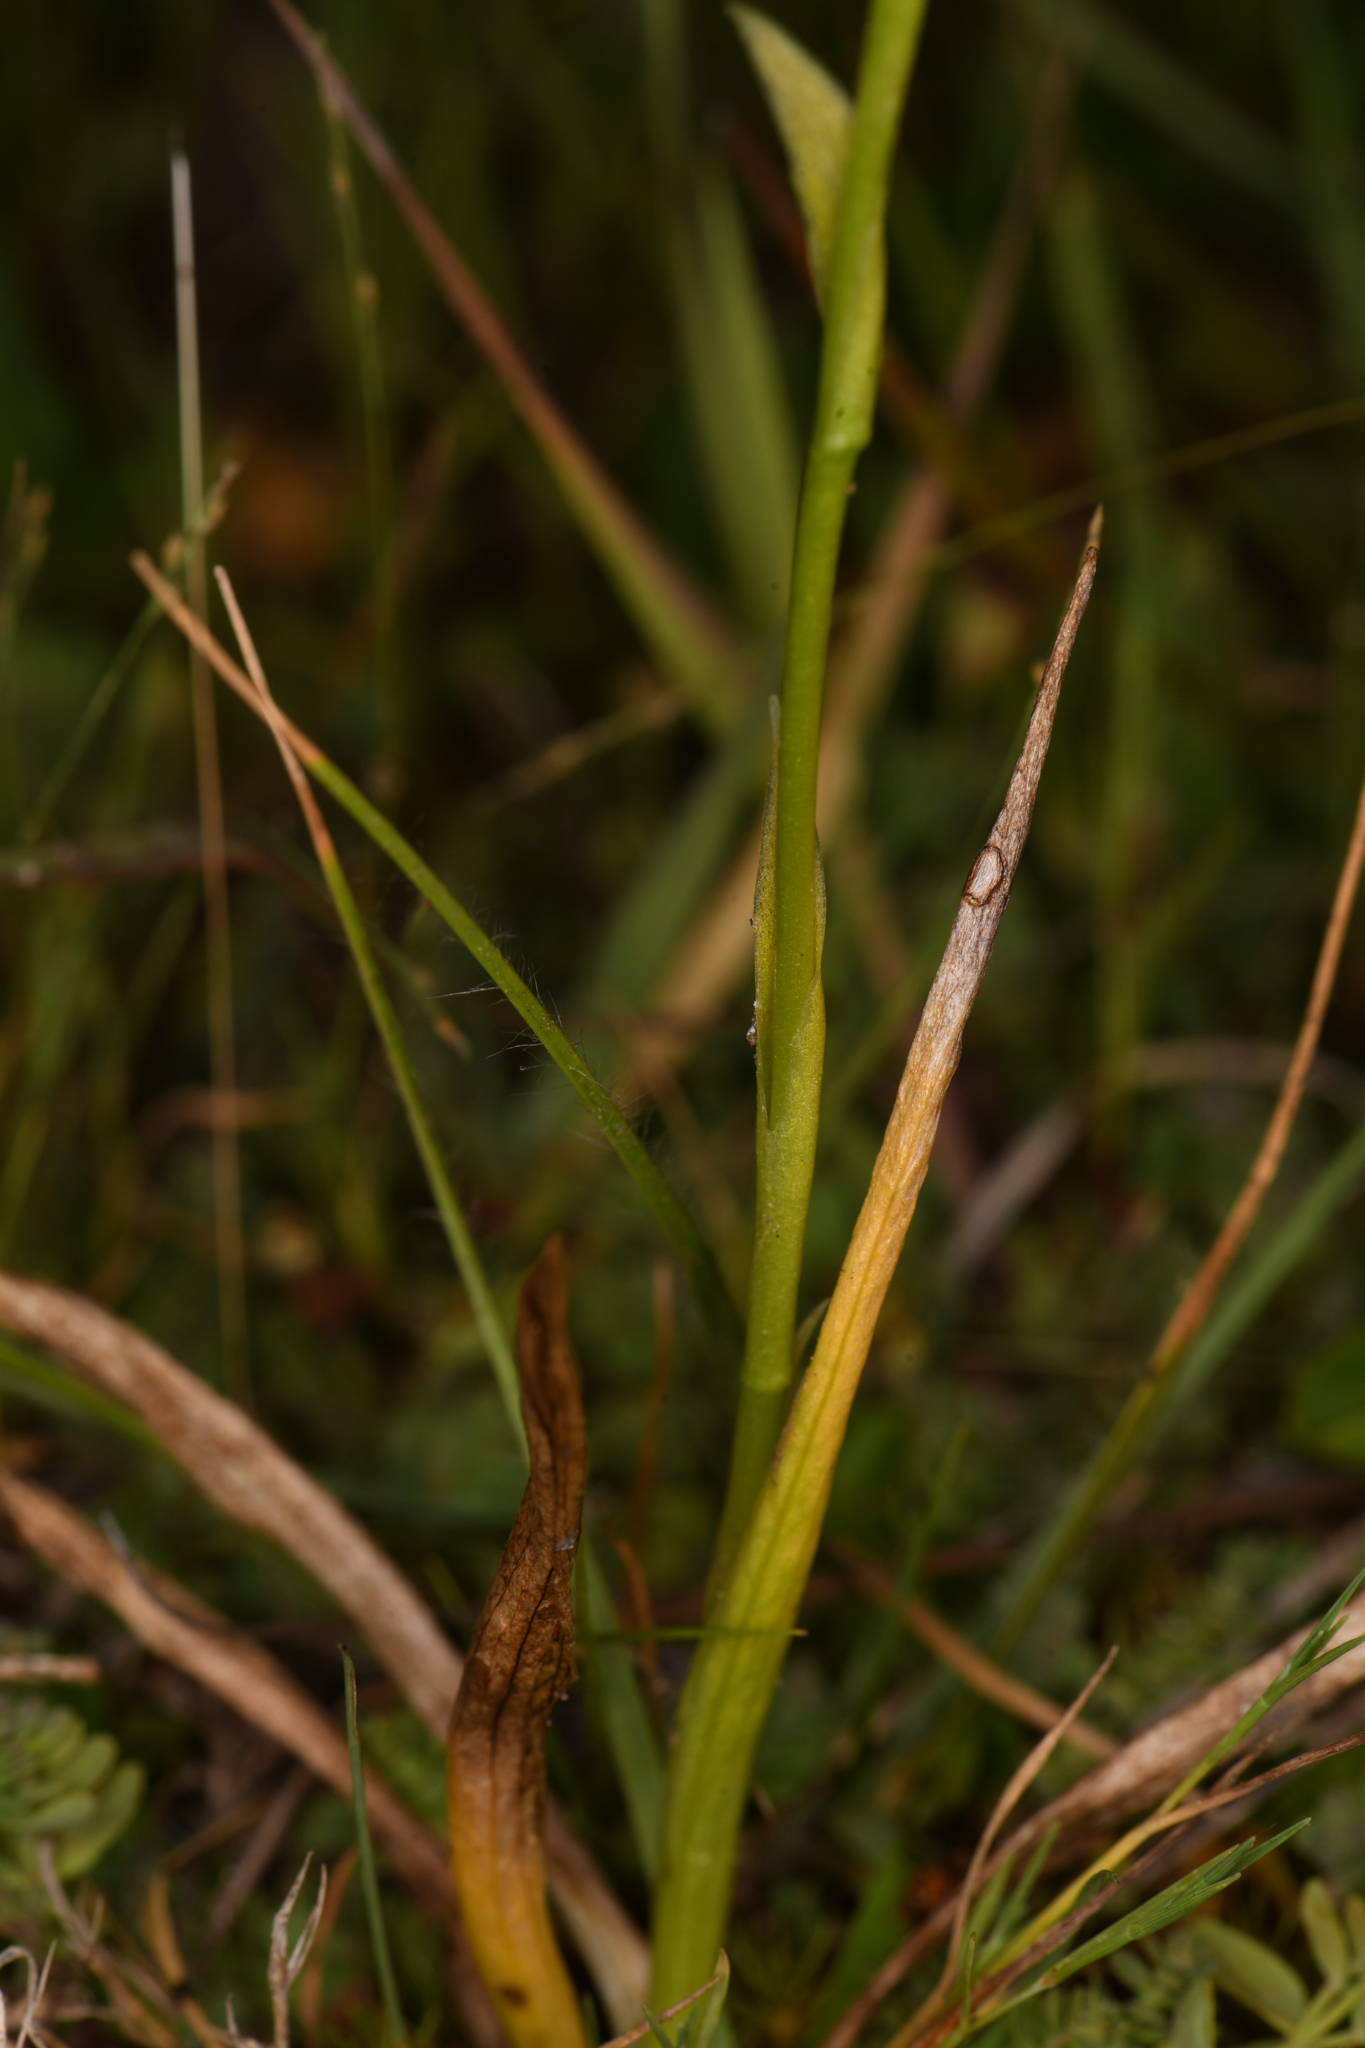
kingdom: Plantae
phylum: Tracheophyta
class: Liliopsida
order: Asparagales
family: Orchidaceae
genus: Spiranthes
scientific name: Spiranthes romanzoffiana
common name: Irish lady's-tresses
